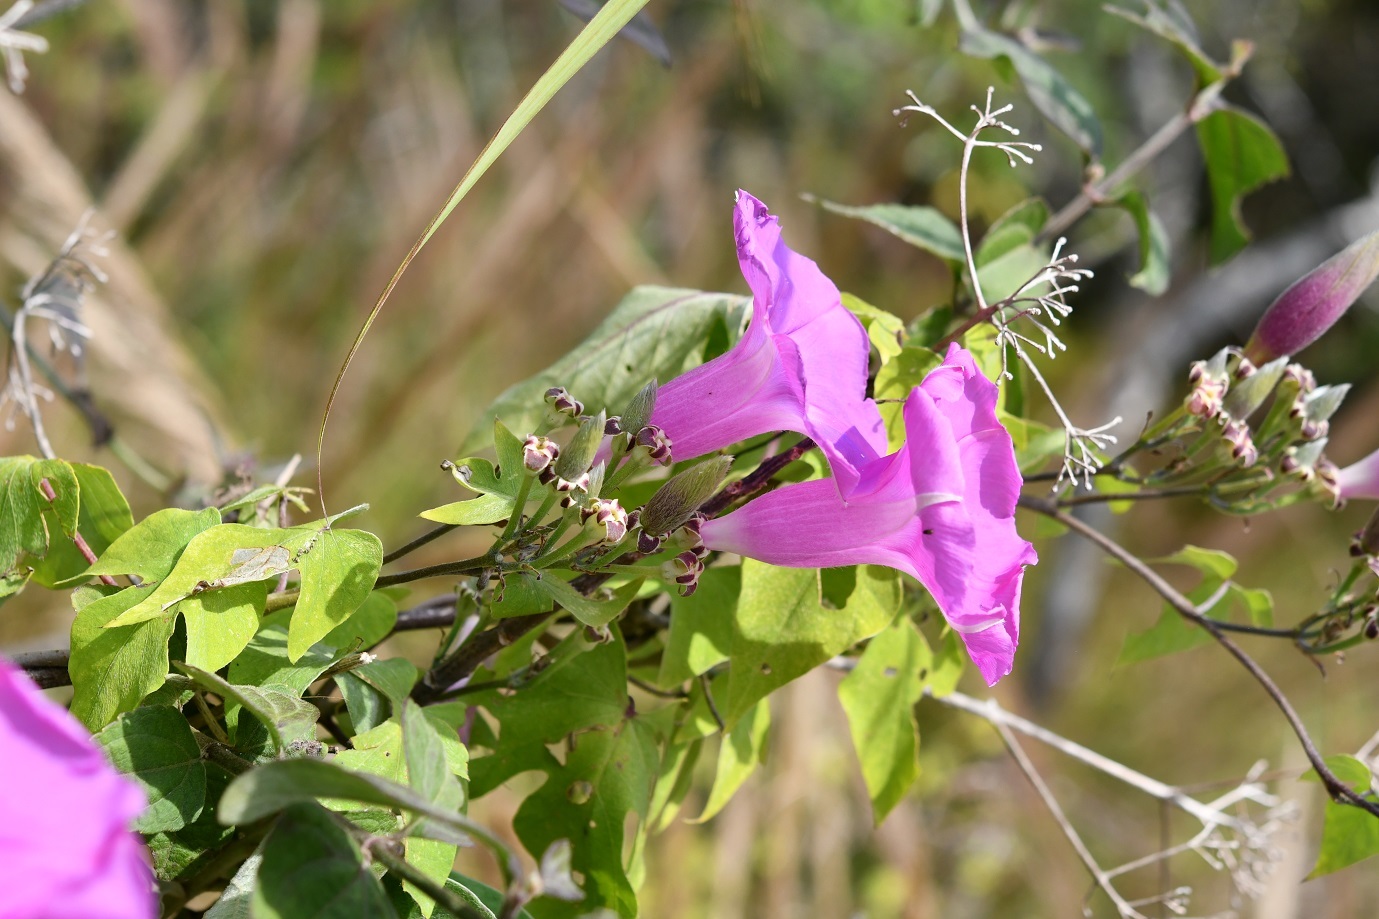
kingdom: Plantae
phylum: Tracheophyta
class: Magnoliopsida
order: Solanales
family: Convolvulaceae
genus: Ipomoea
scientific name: Ipomoea leucotricha
